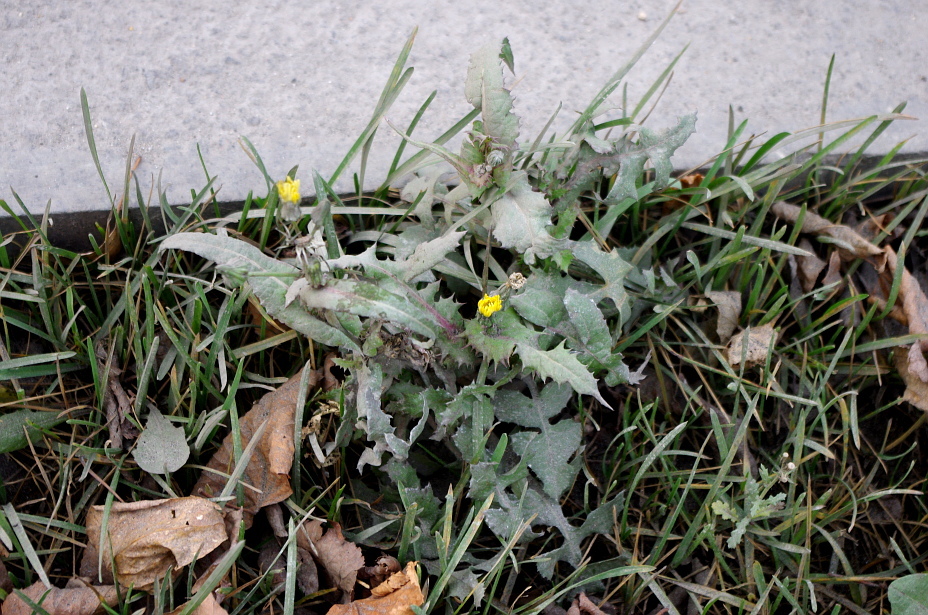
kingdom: Plantae
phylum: Tracheophyta
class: Magnoliopsida
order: Asterales
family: Asteraceae
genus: Sonchus
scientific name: Sonchus oleraceus
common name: Common sowthistle
